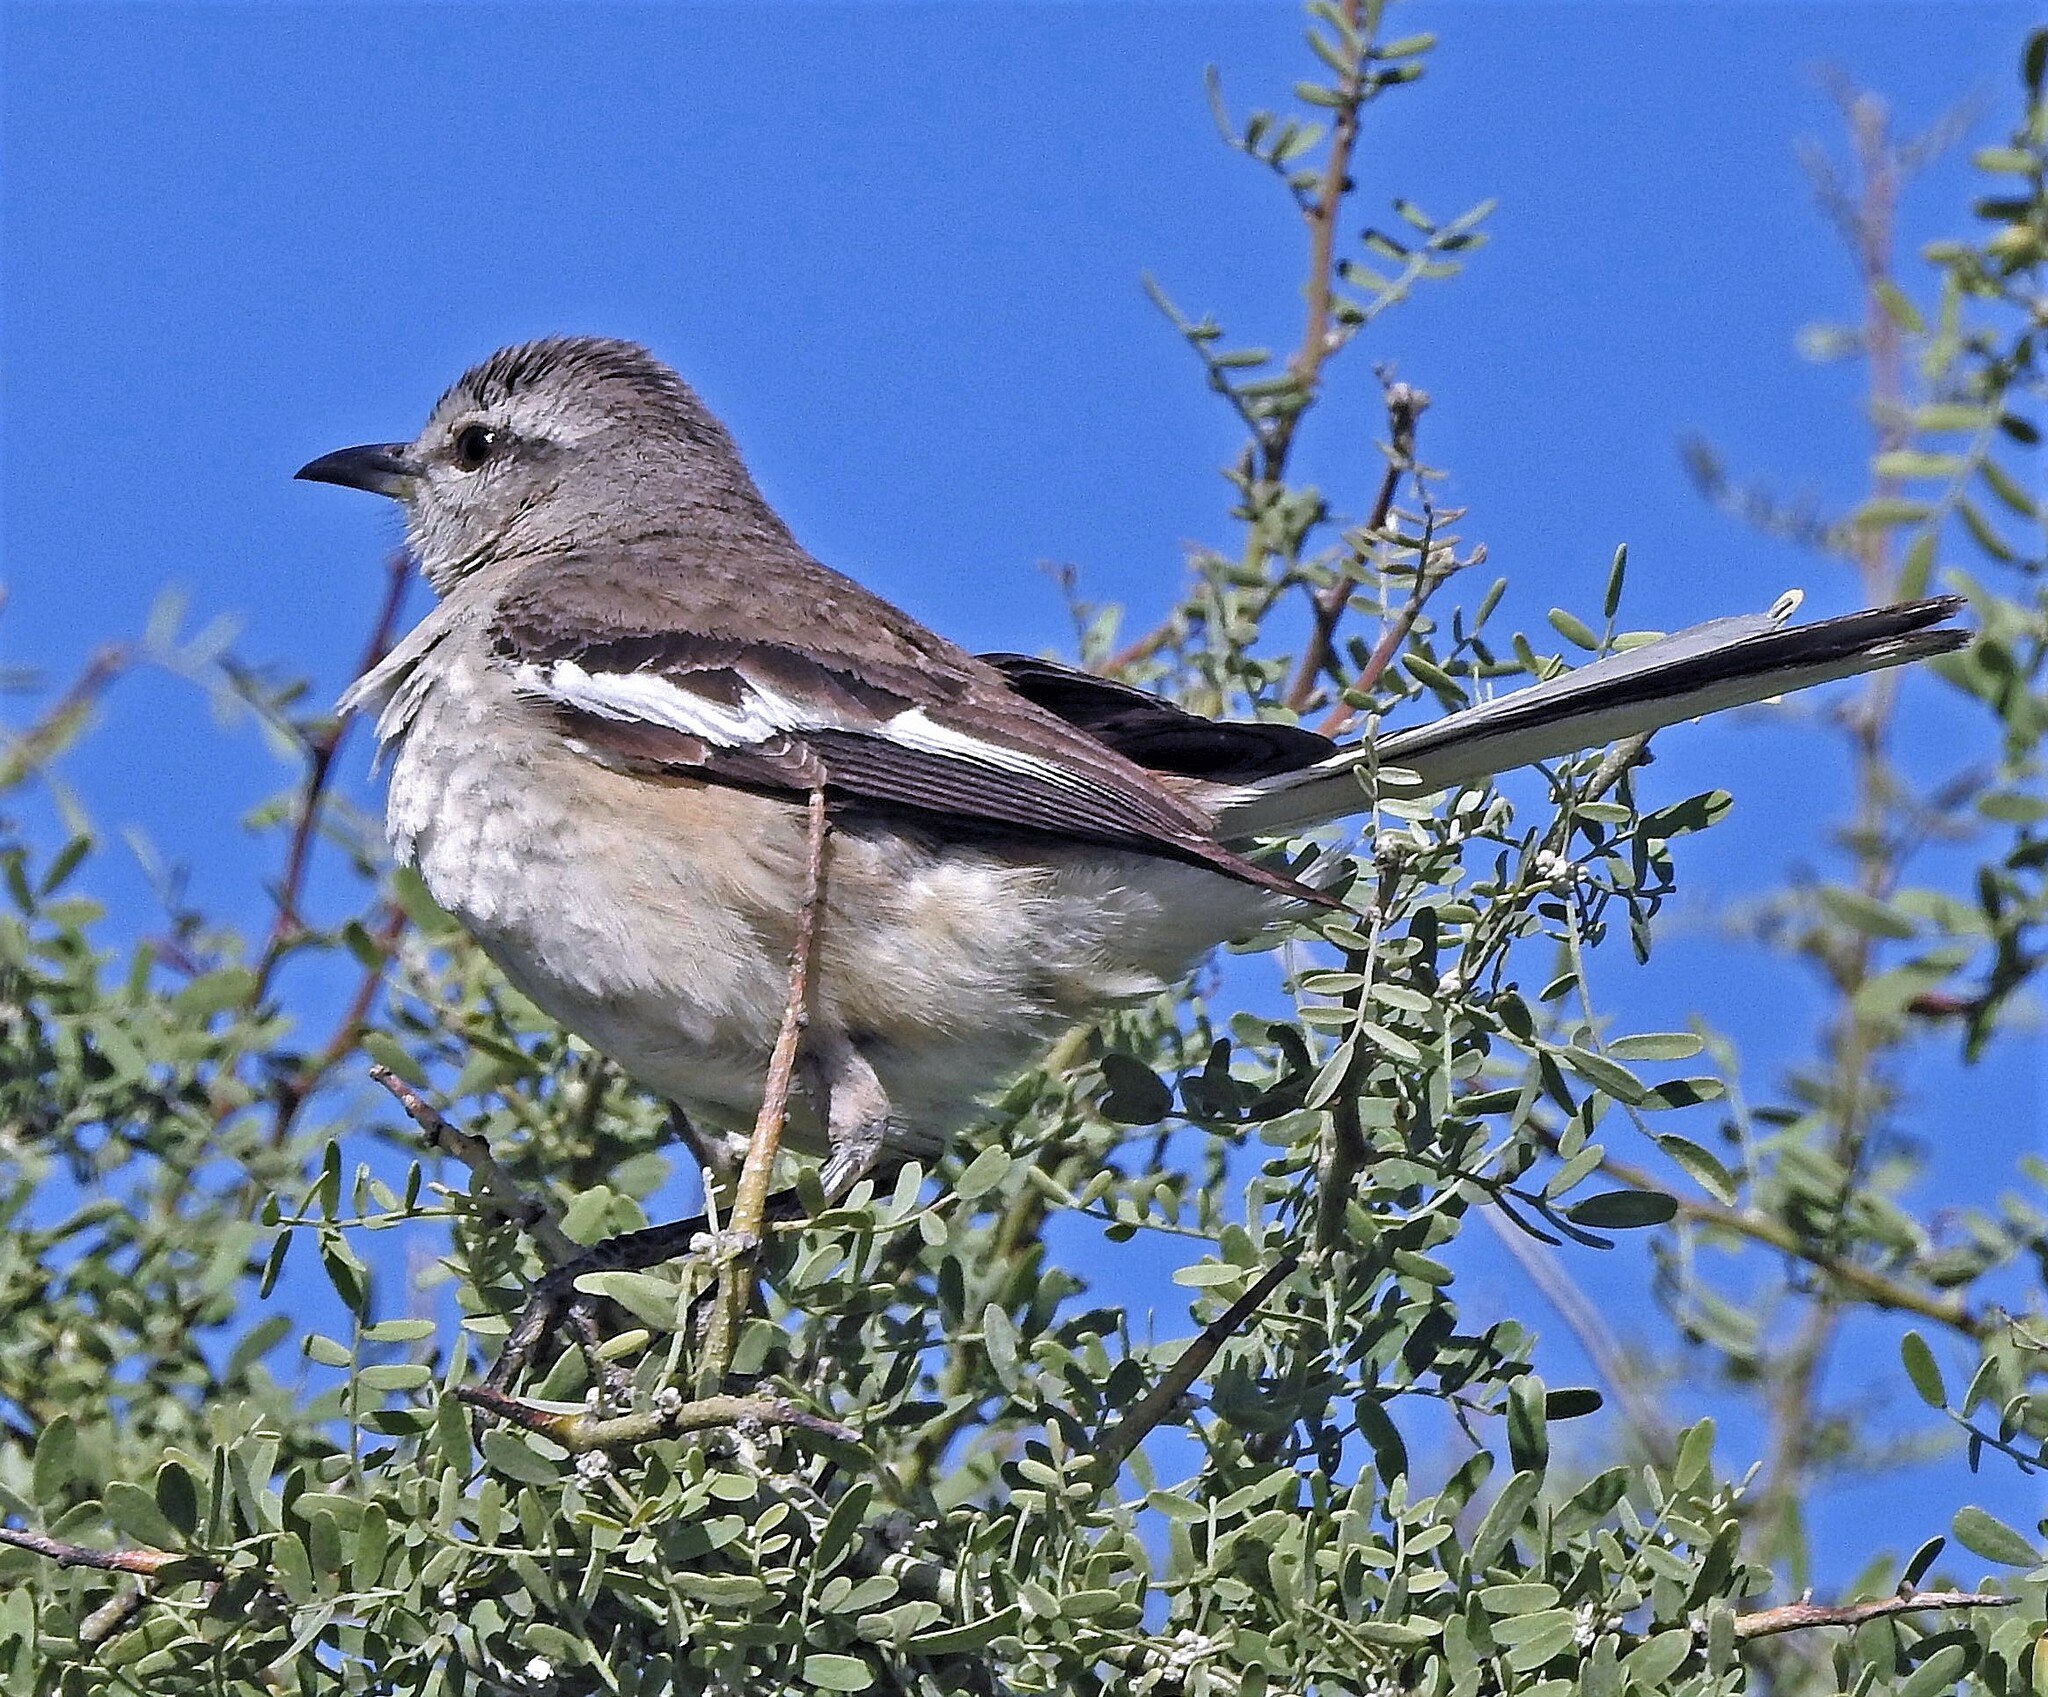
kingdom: Animalia
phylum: Chordata
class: Aves
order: Passeriformes
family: Mimidae
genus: Mimus
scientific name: Mimus triurus
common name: White-banded mockingbird
